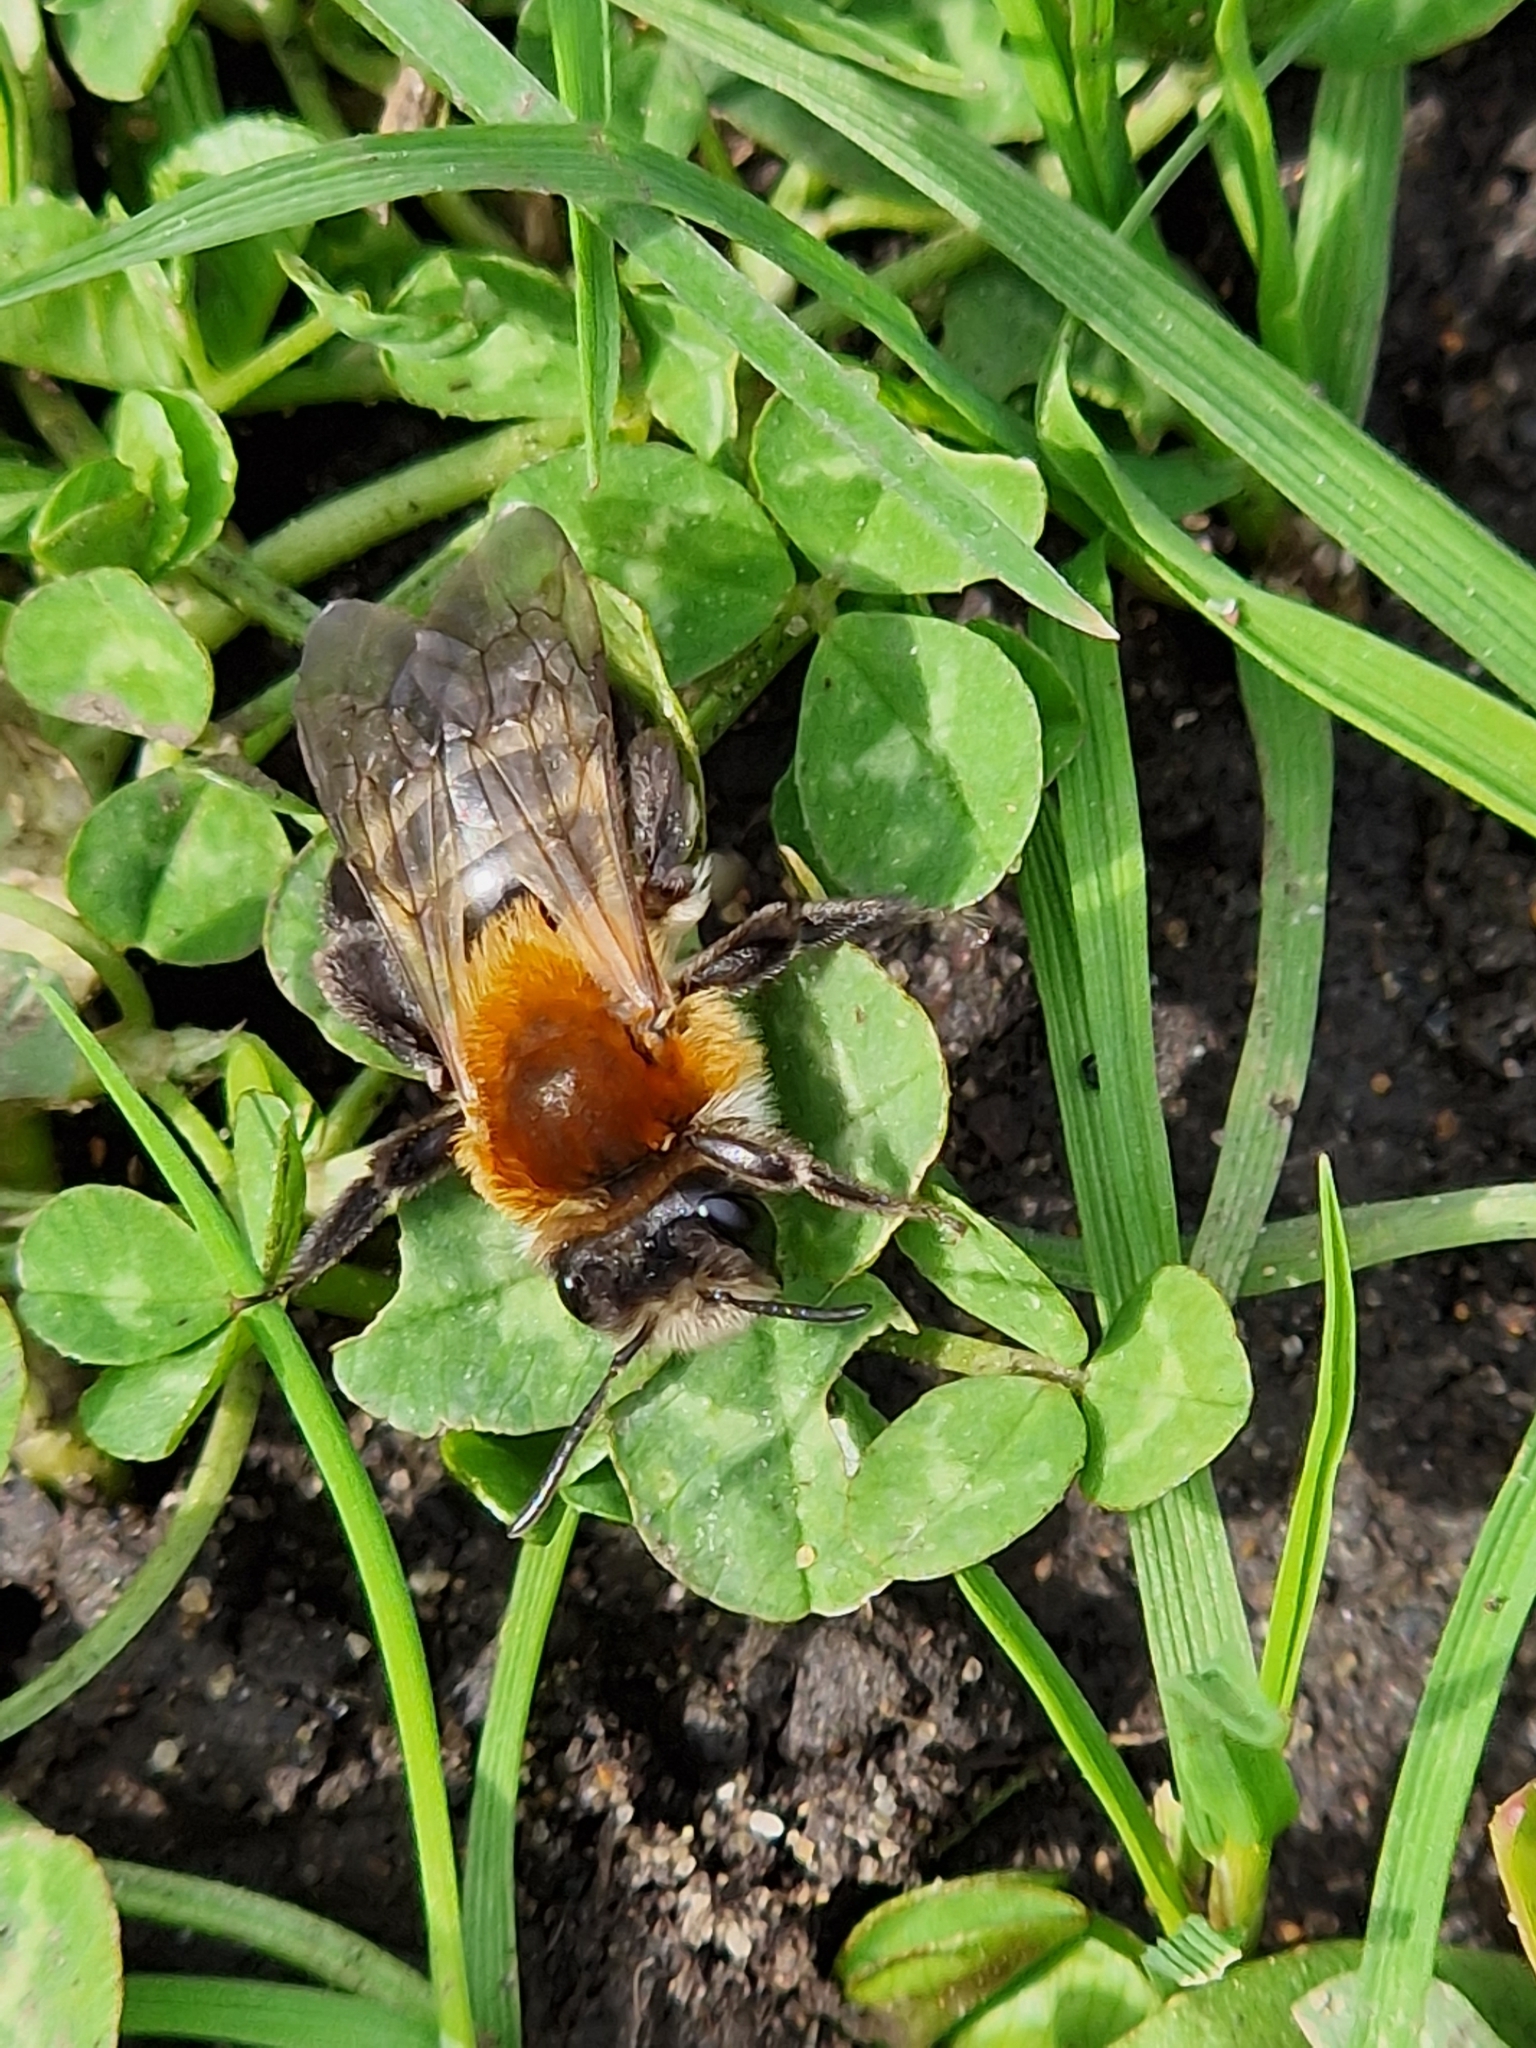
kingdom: Animalia
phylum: Arthropoda
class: Insecta
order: Hymenoptera
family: Andrenidae
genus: Andrena
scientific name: Andrena nitida
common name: Grey-patched mining bee
